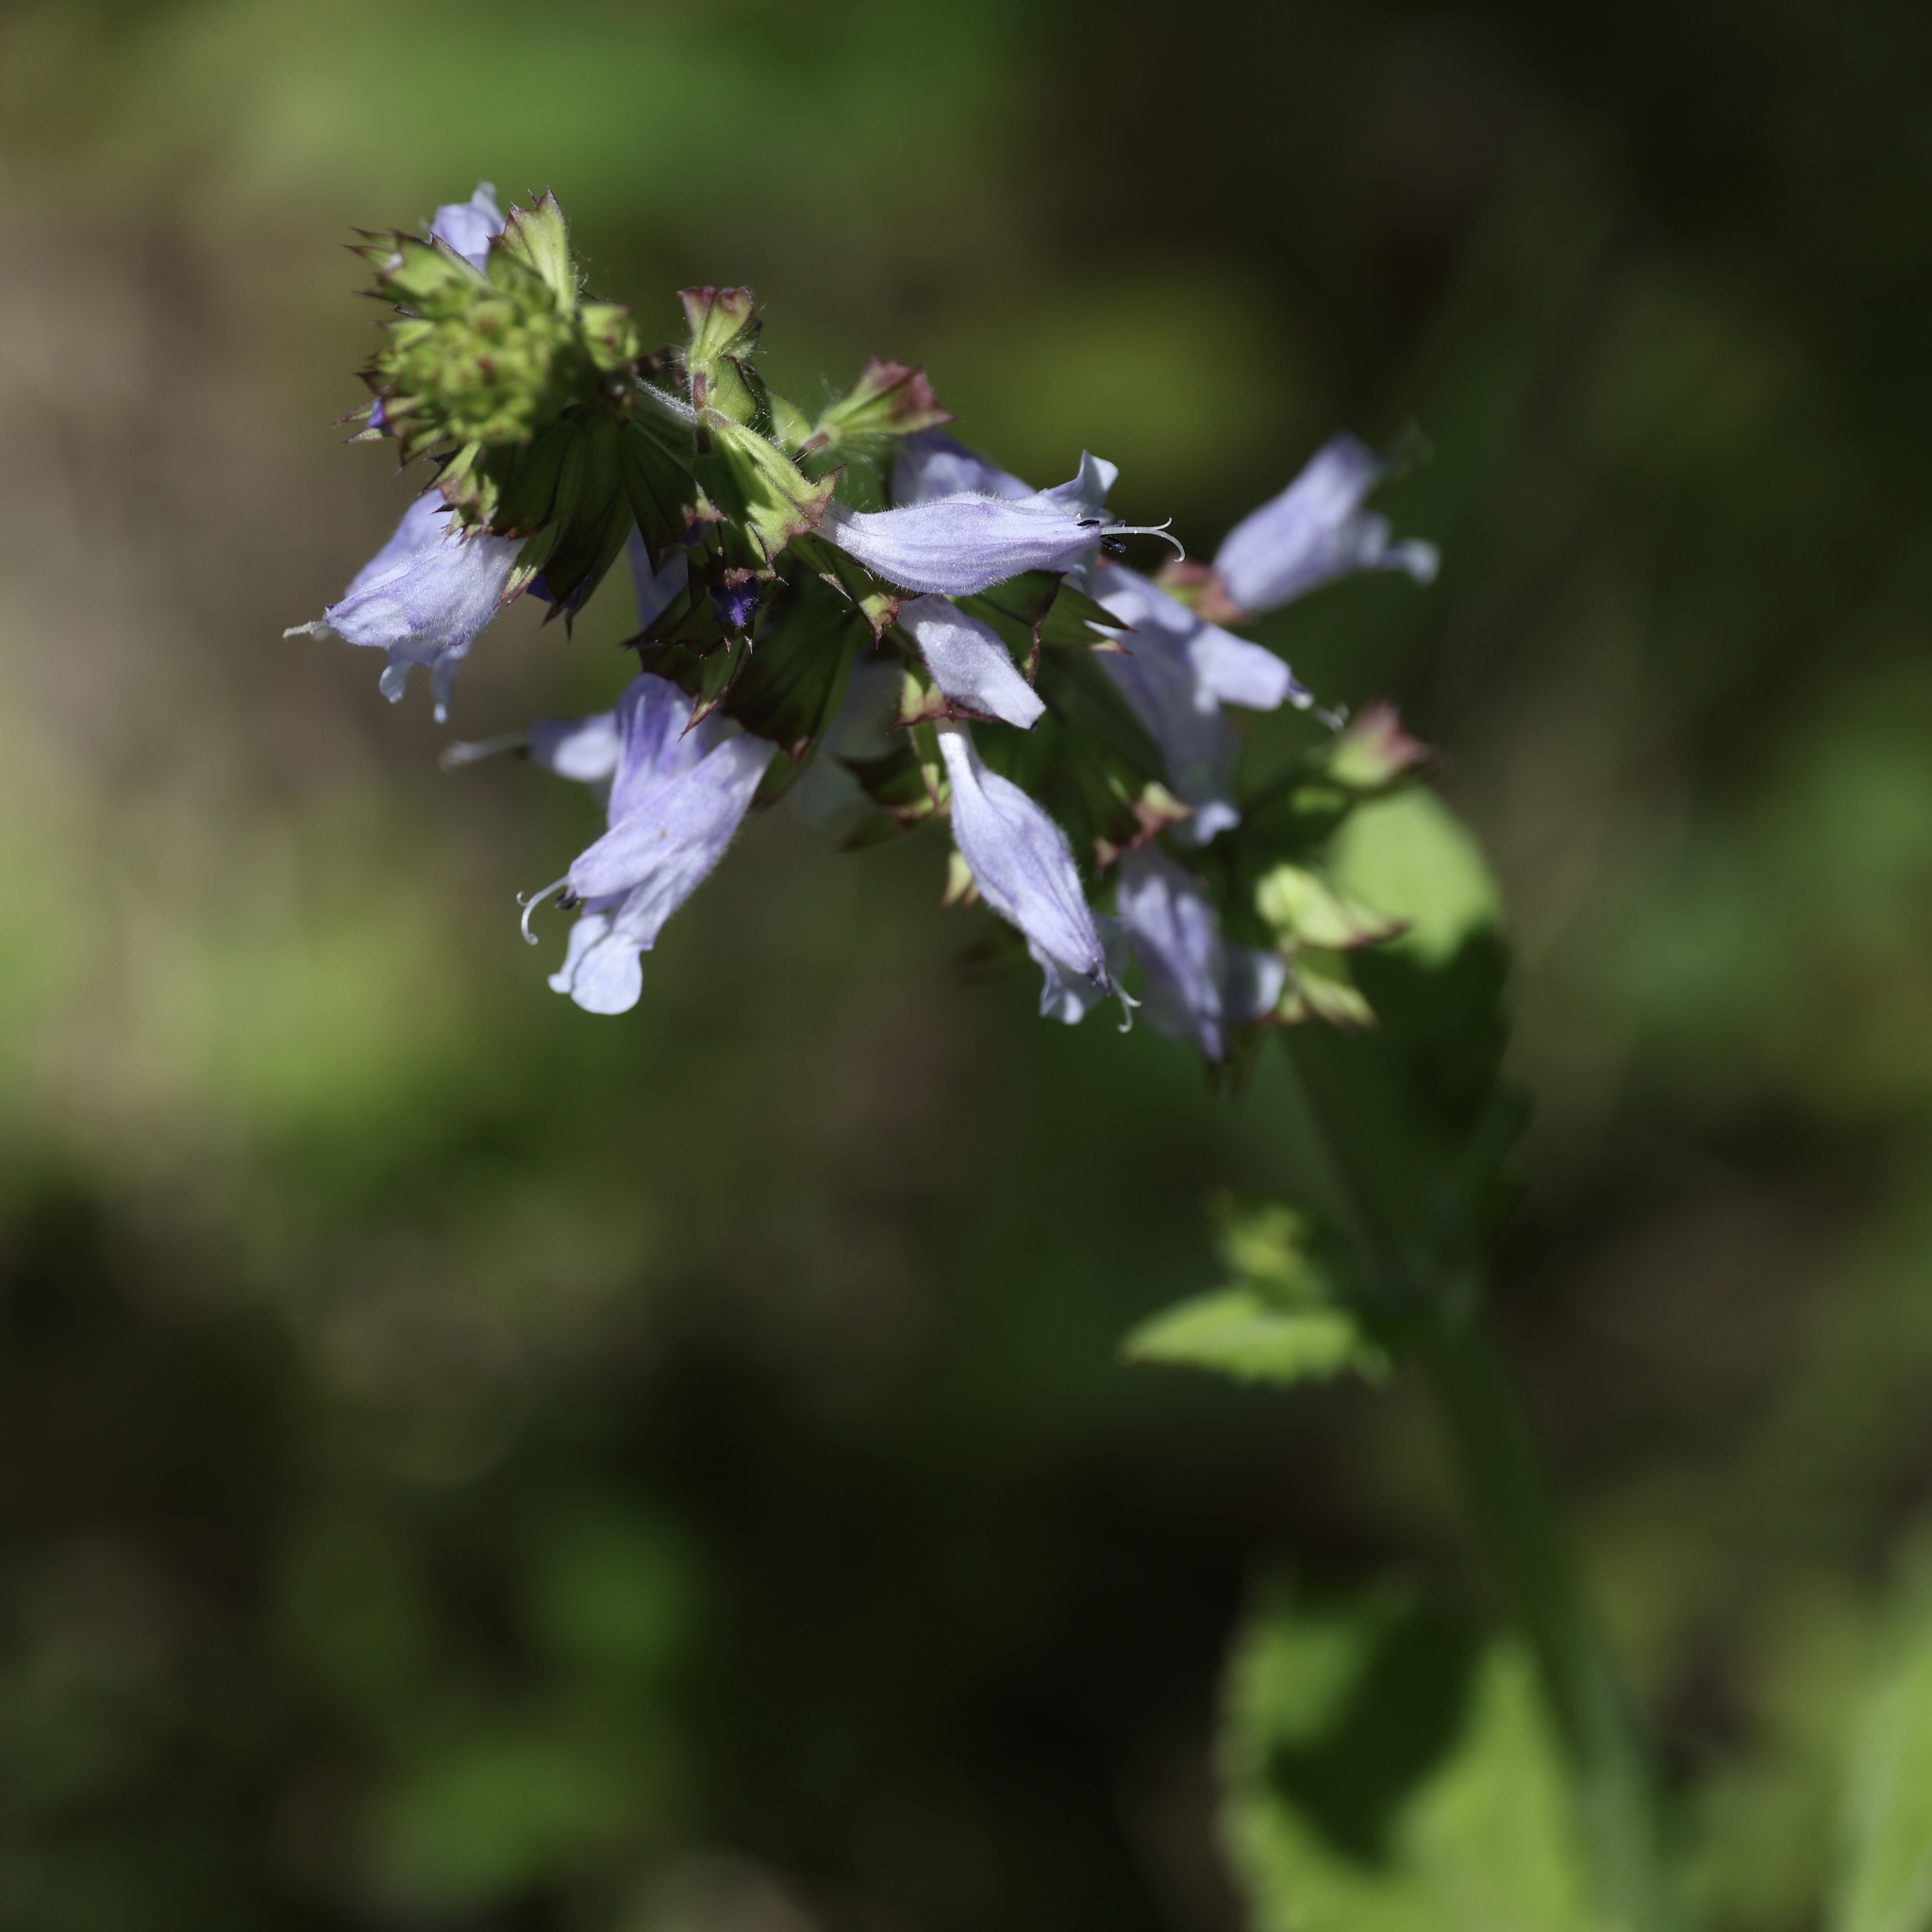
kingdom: Plantae
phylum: Tracheophyta
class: Magnoliopsida
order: Lamiales
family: Lamiaceae
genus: Salvia
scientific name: Salvia lyrata
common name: Cancerweed
